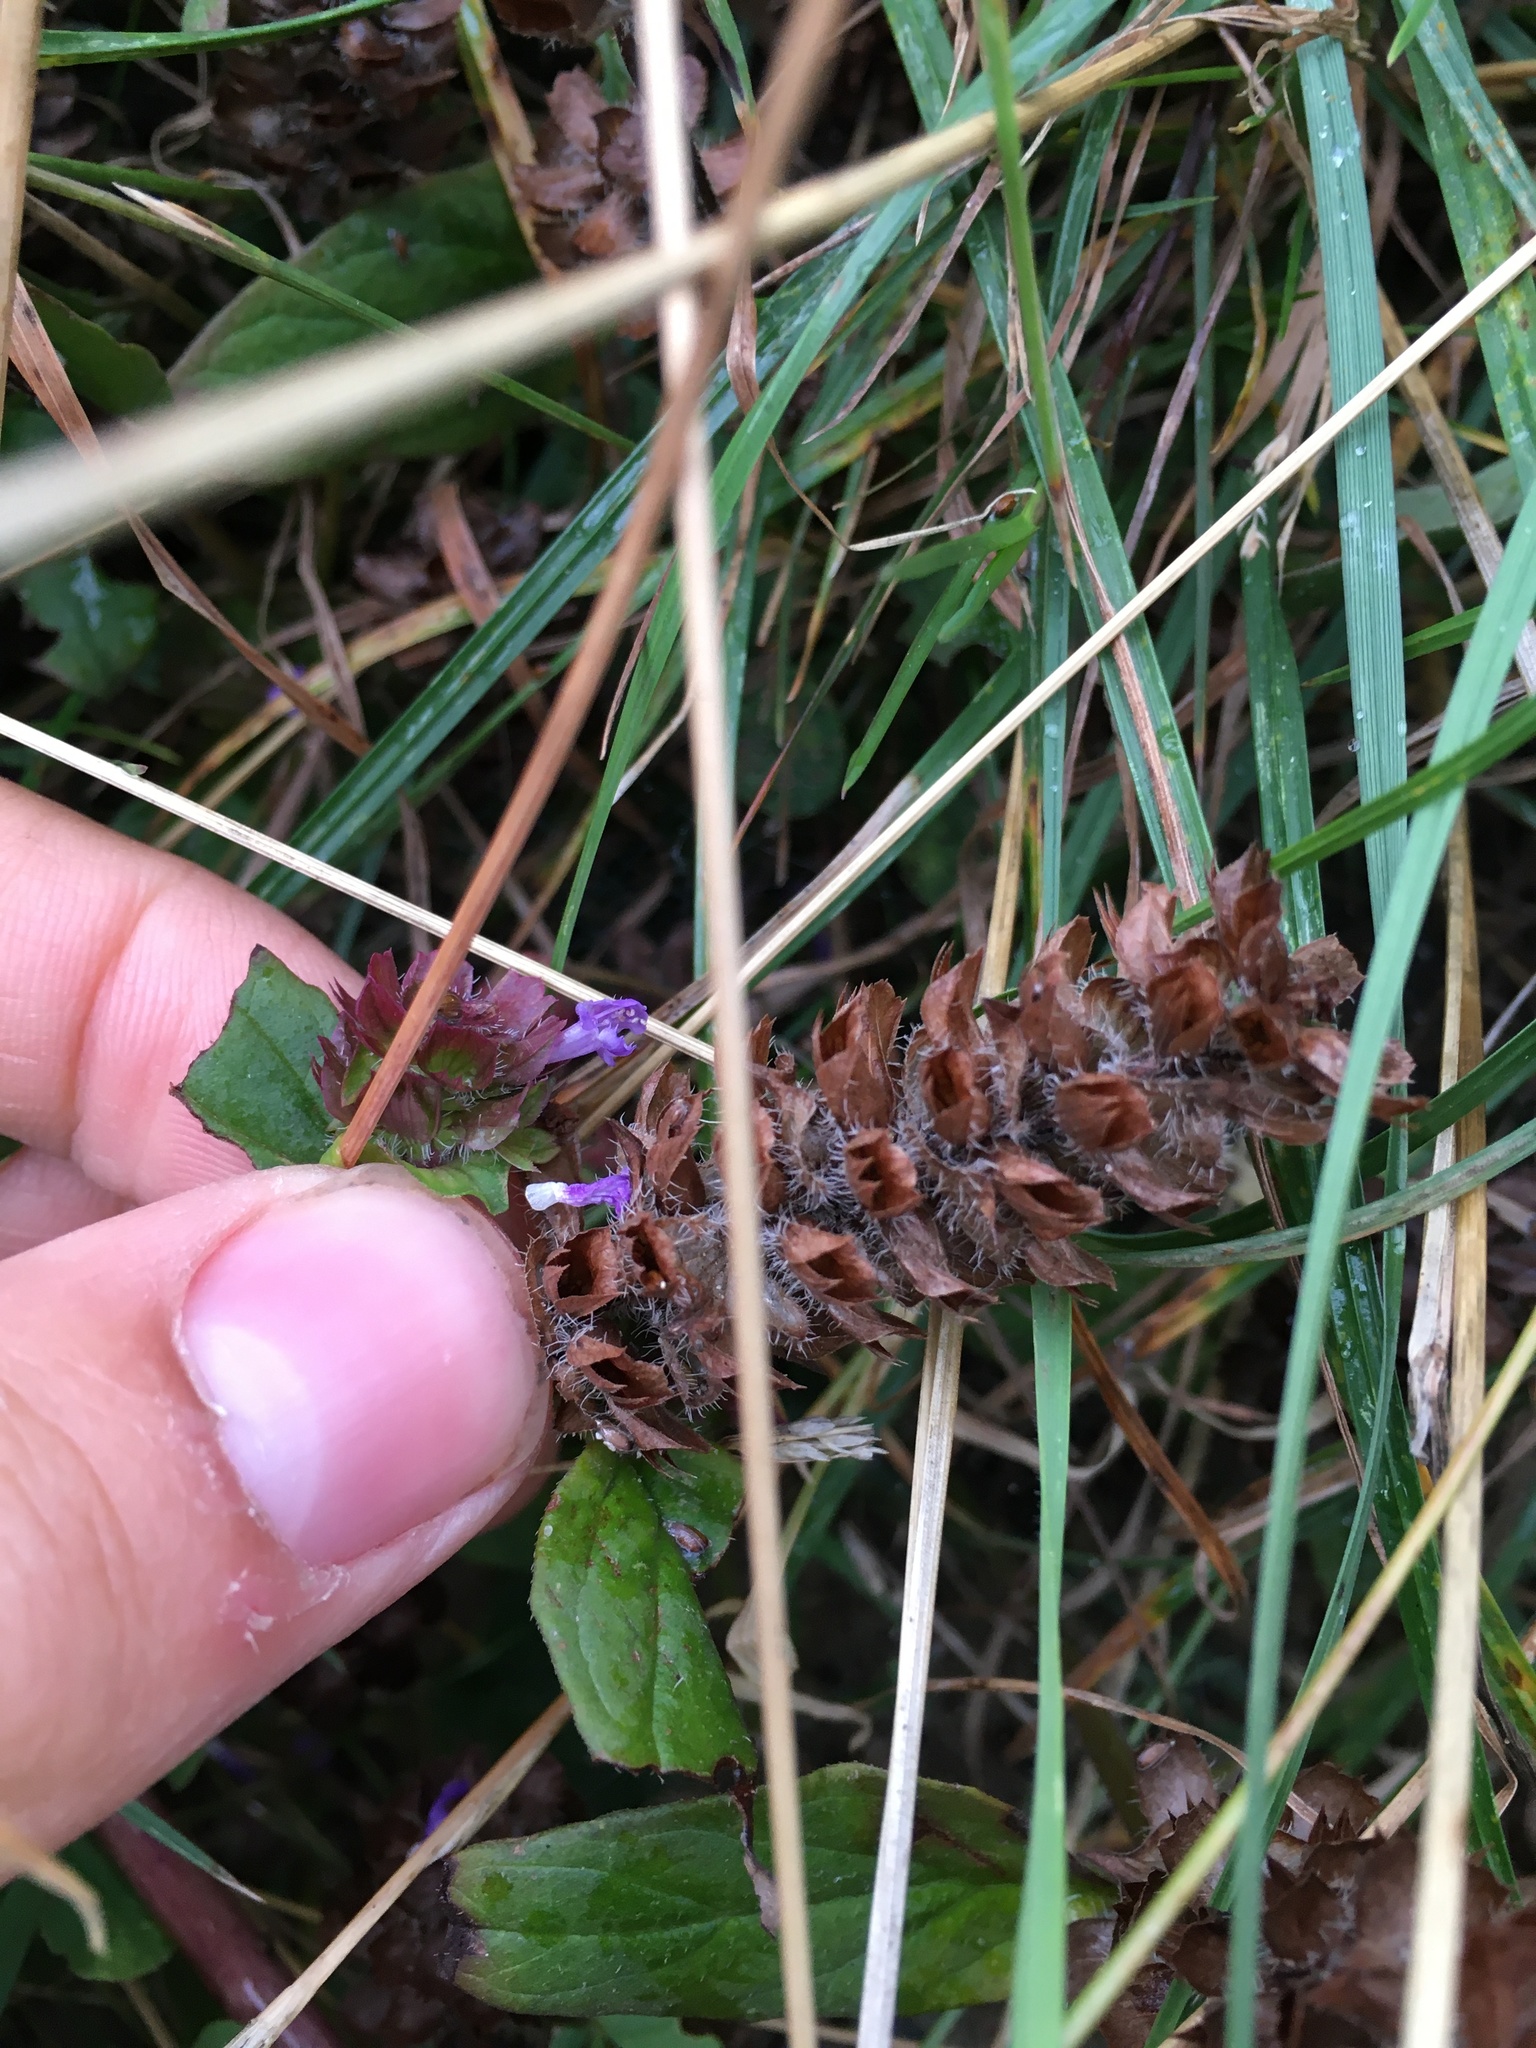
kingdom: Plantae
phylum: Tracheophyta
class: Magnoliopsida
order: Lamiales
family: Lamiaceae
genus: Prunella
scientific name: Prunella vulgaris
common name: Heal-all
